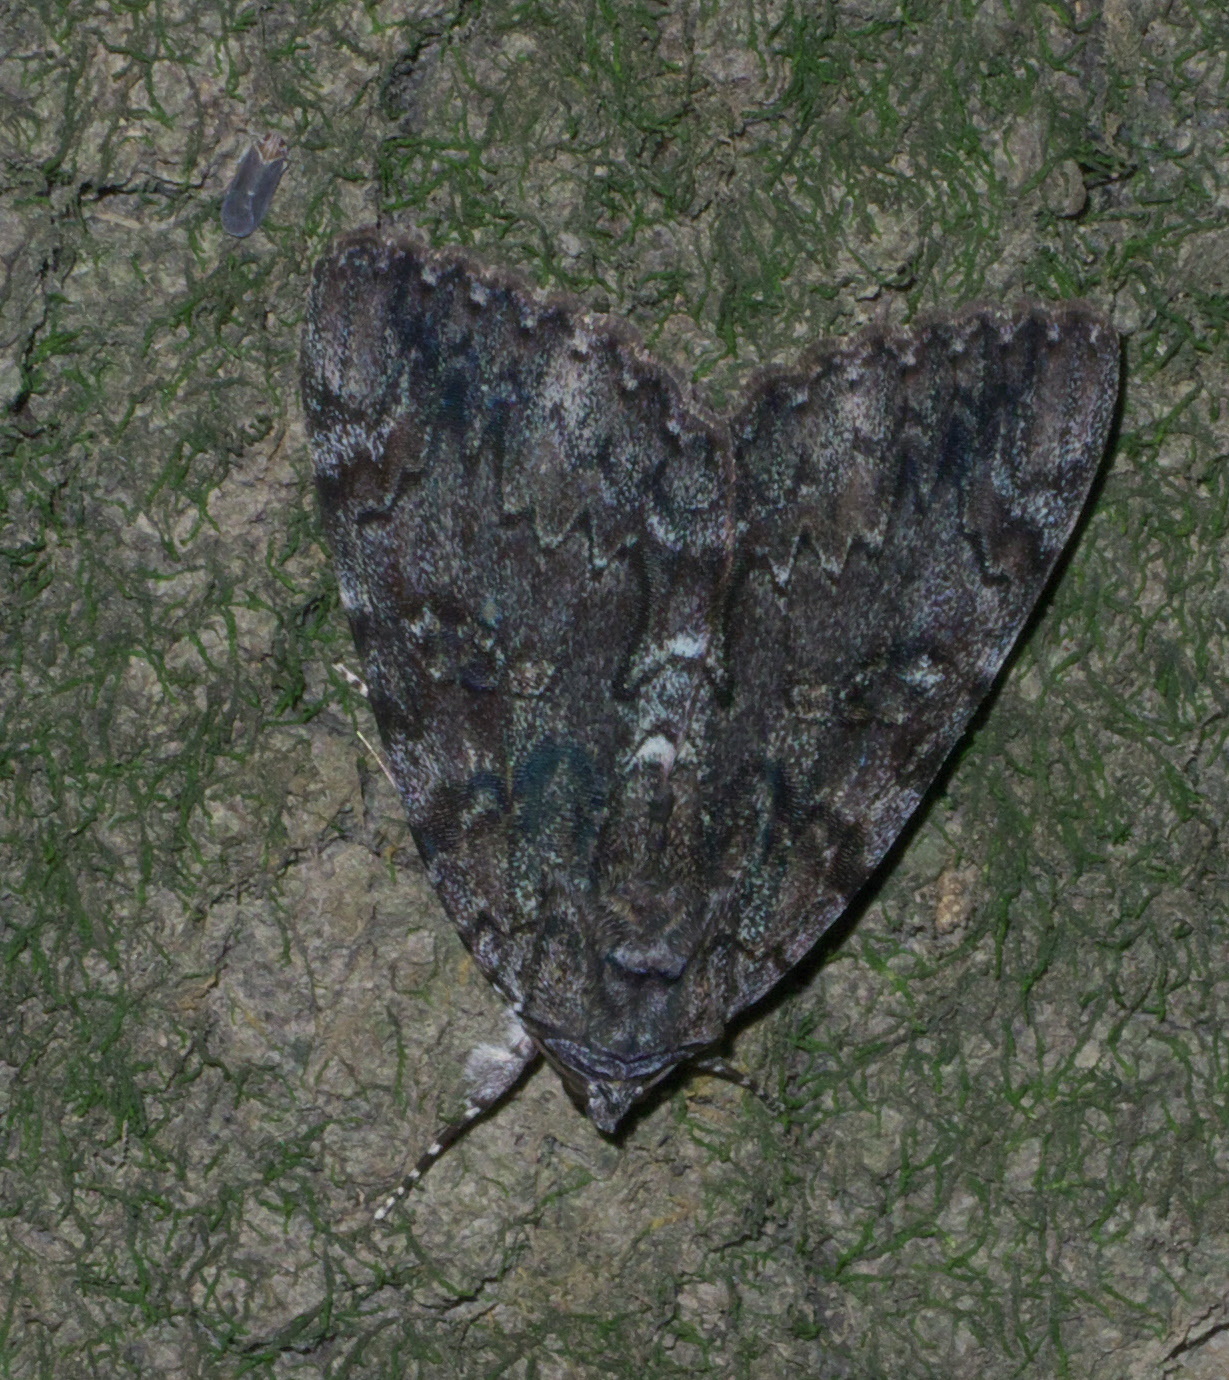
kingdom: Animalia
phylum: Arthropoda
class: Insecta
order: Lepidoptera
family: Erebidae
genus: Catocala
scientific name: Catocala lacrymosa
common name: Tearful underwing
